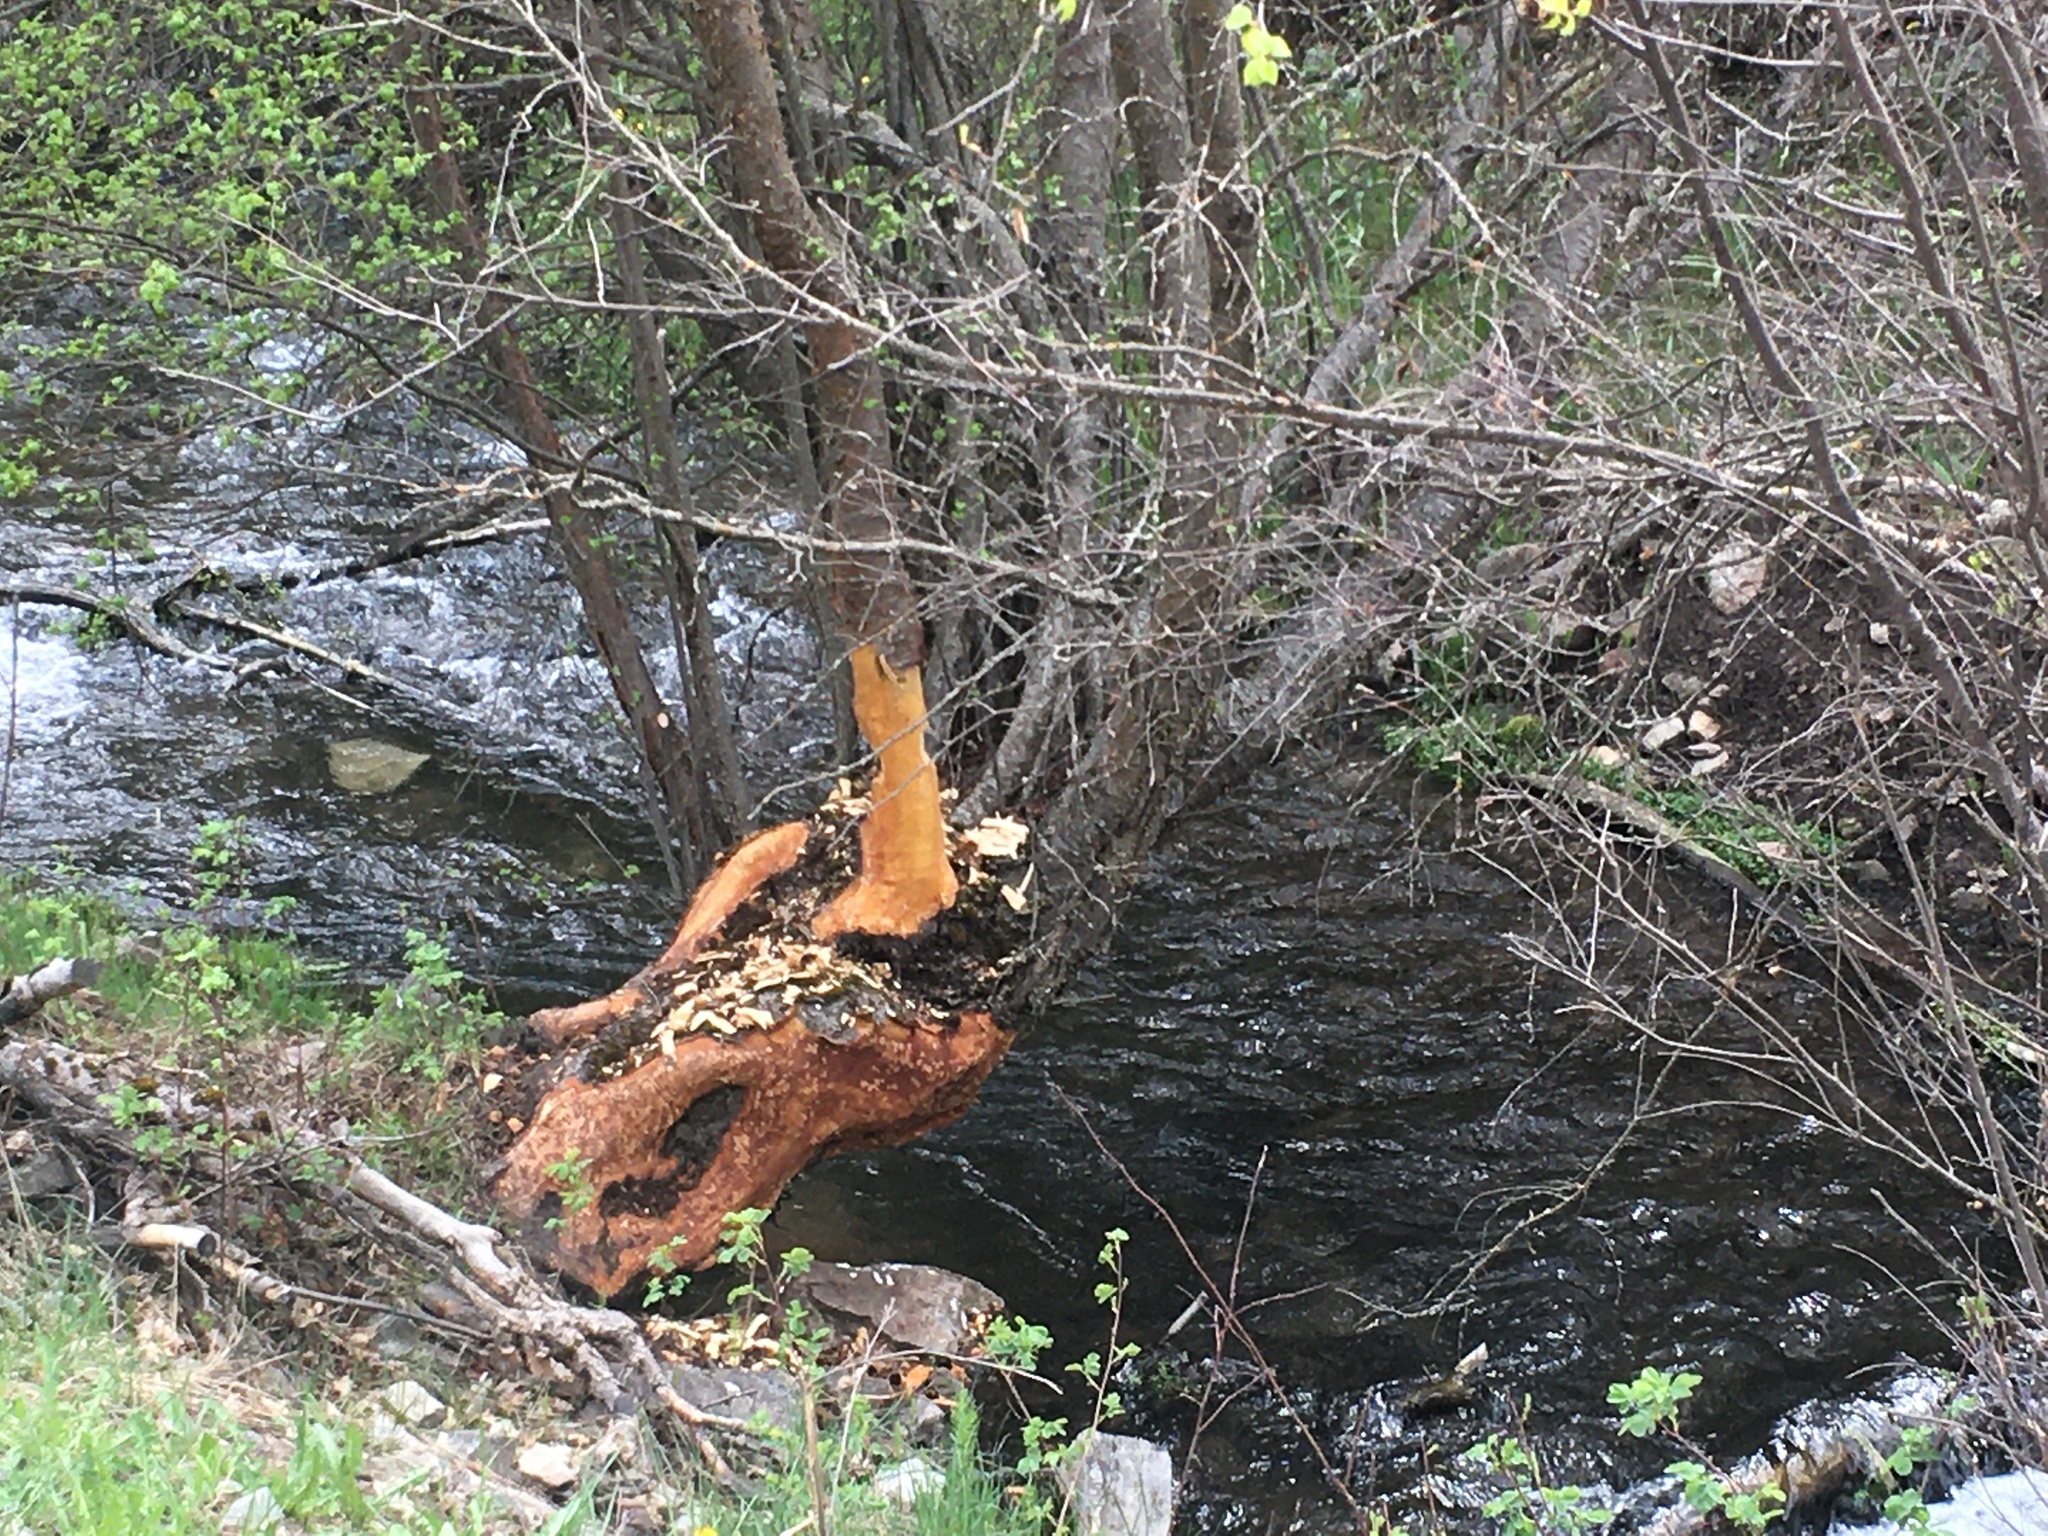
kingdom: Animalia
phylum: Chordata
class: Mammalia
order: Rodentia
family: Castoridae
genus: Castor
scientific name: Castor canadensis
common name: American beaver
